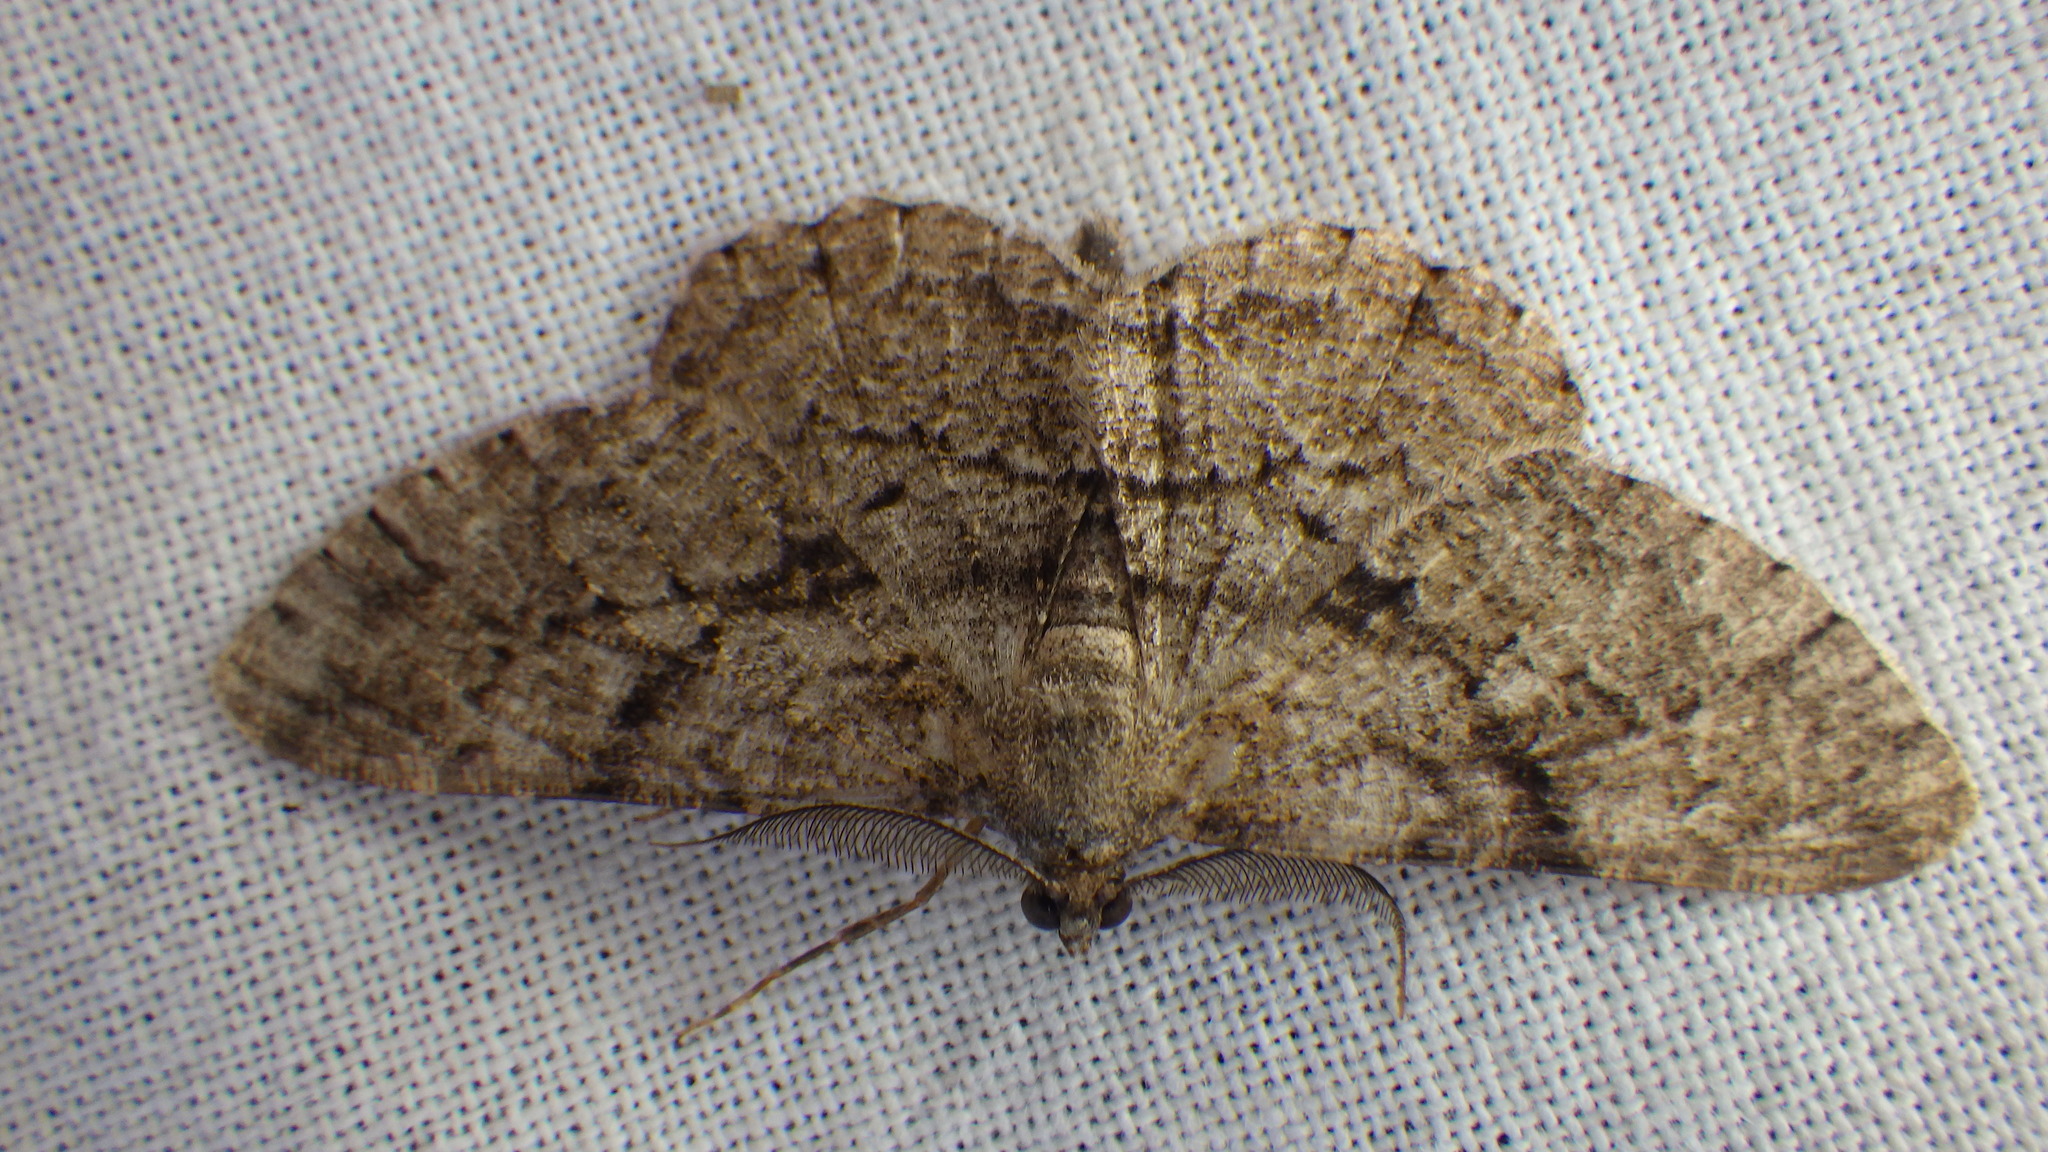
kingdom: Animalia
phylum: Arthropoda
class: Insecta
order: Lepidoptera
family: Geometridae
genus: Peribatodes
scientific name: Peribatodes rhomboidaria
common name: Willow beauty
